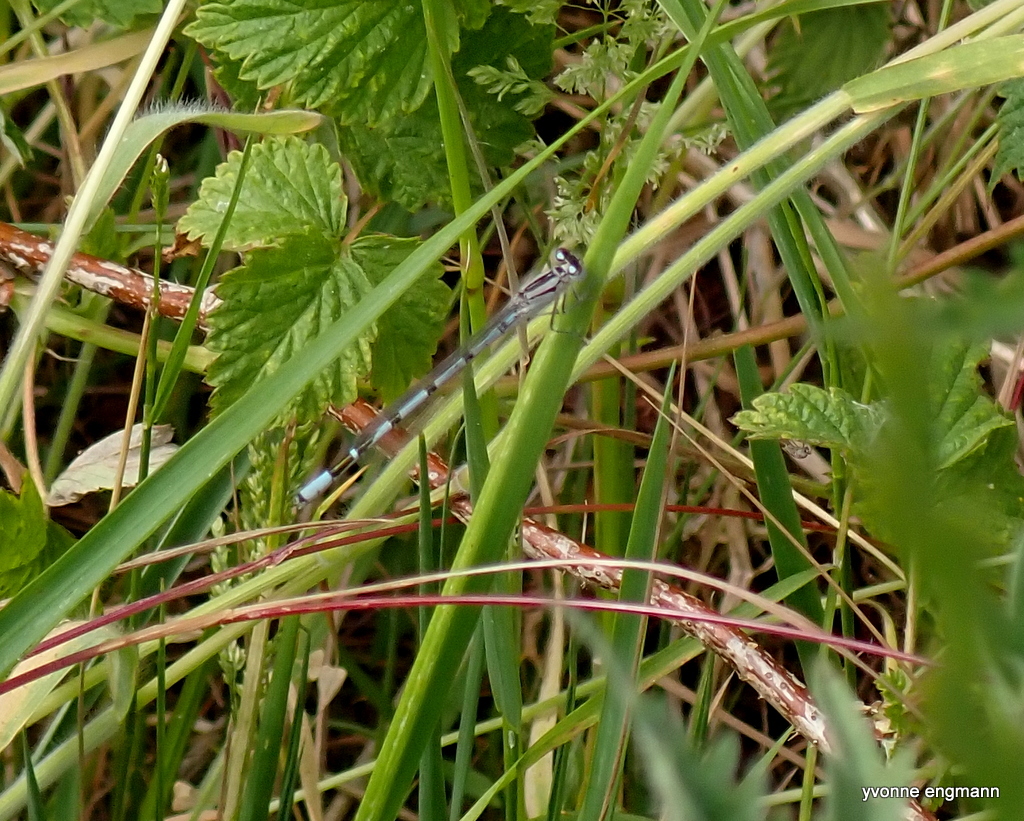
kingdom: Animalia
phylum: Arthropoda
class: Insecta
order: Odonata
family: Coenagrionidae
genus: Enallagma
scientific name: Enallagma cyathigerum
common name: Common blue damselfly
